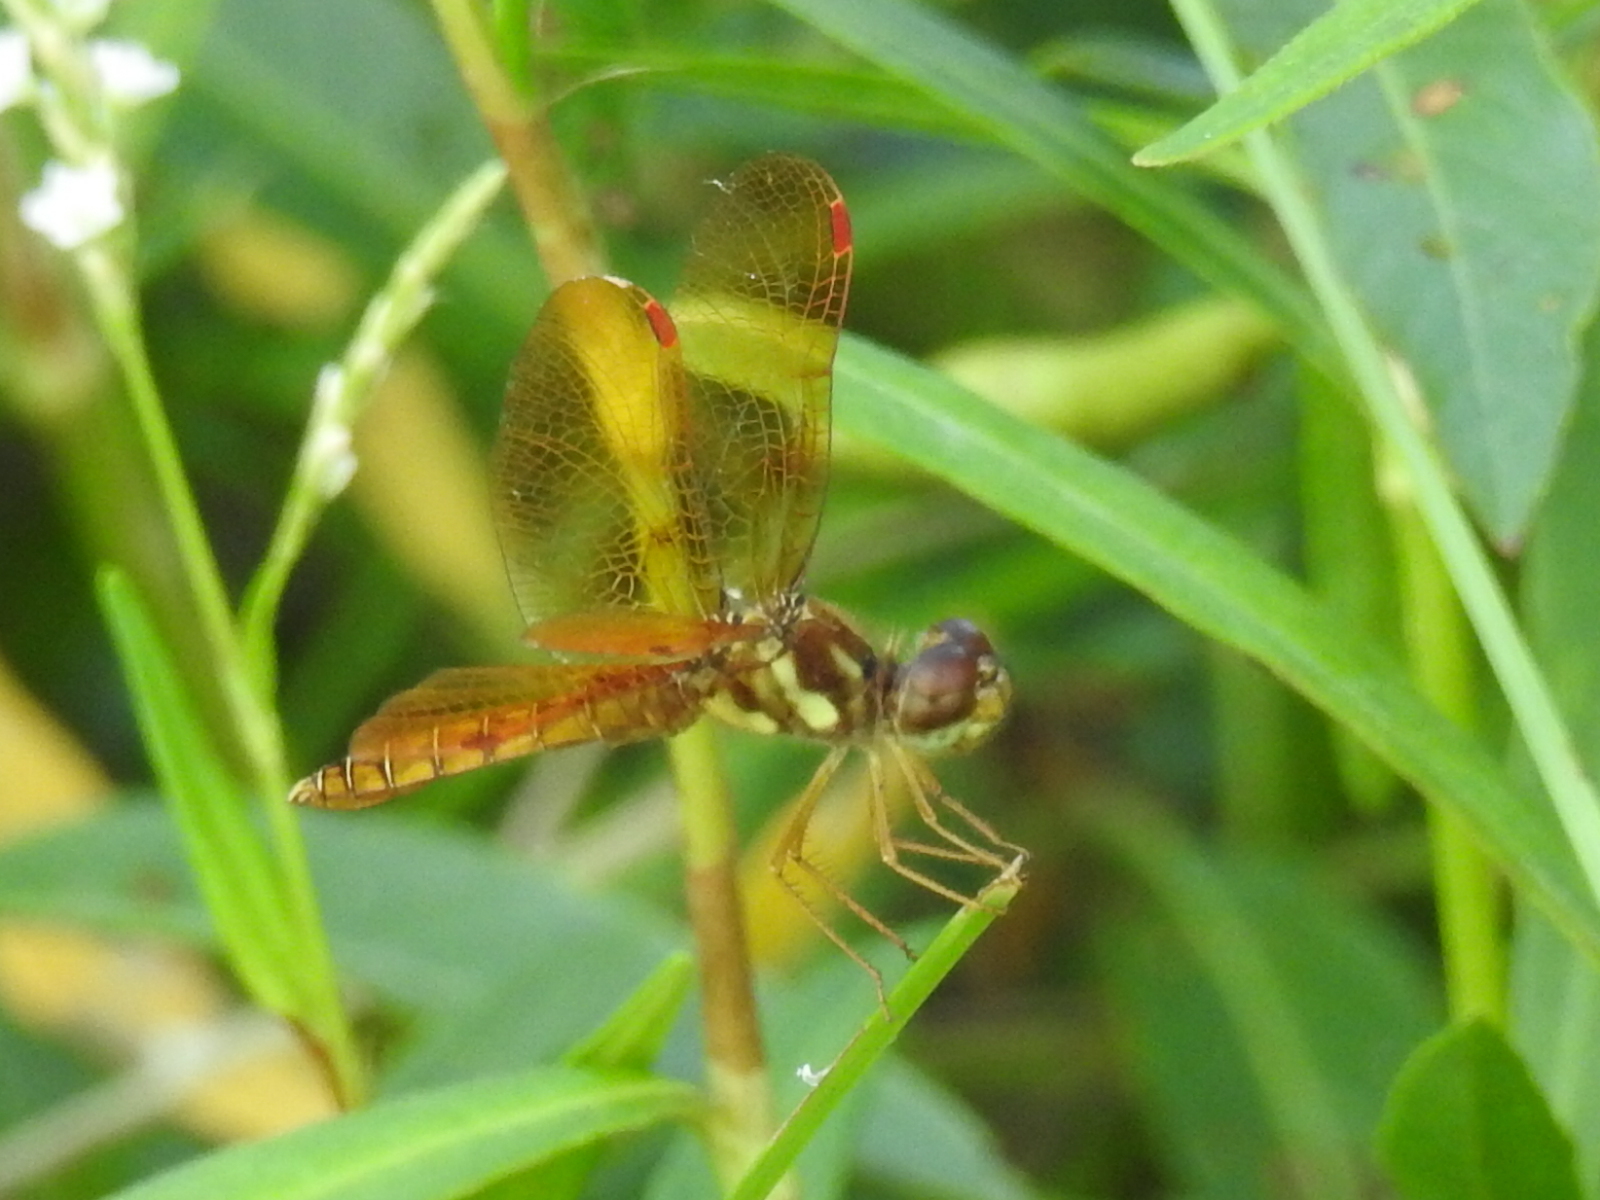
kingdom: Animalia
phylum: Arthropoda
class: Insecta
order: Odonata
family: Libellulidae
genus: Perithemis
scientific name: Perithemis tenera
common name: Eastern amberwing
